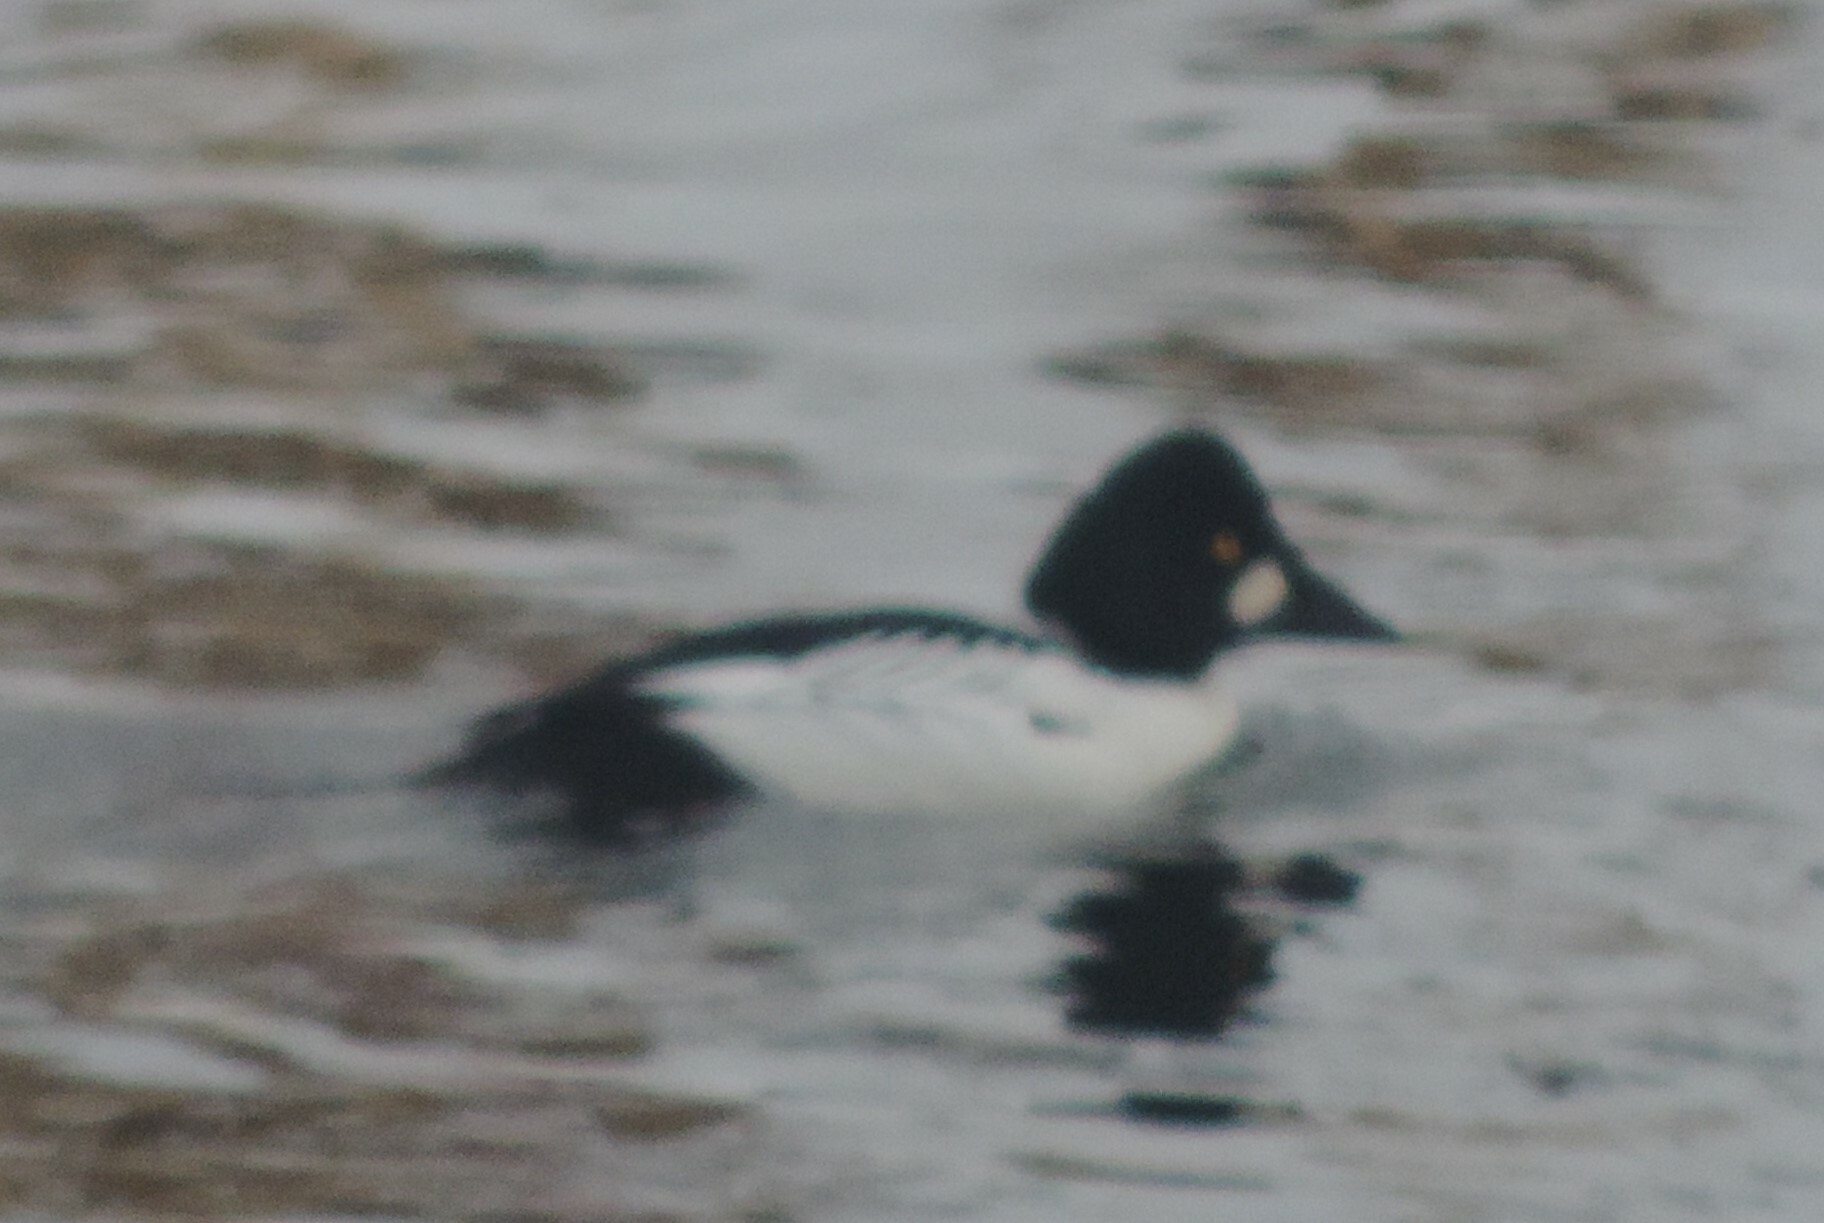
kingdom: Animalia
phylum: Chordata
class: Aves
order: Anseriformes
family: Anatidae
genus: Bucephala
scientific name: Bucephala clangula
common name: Common goldeneye
